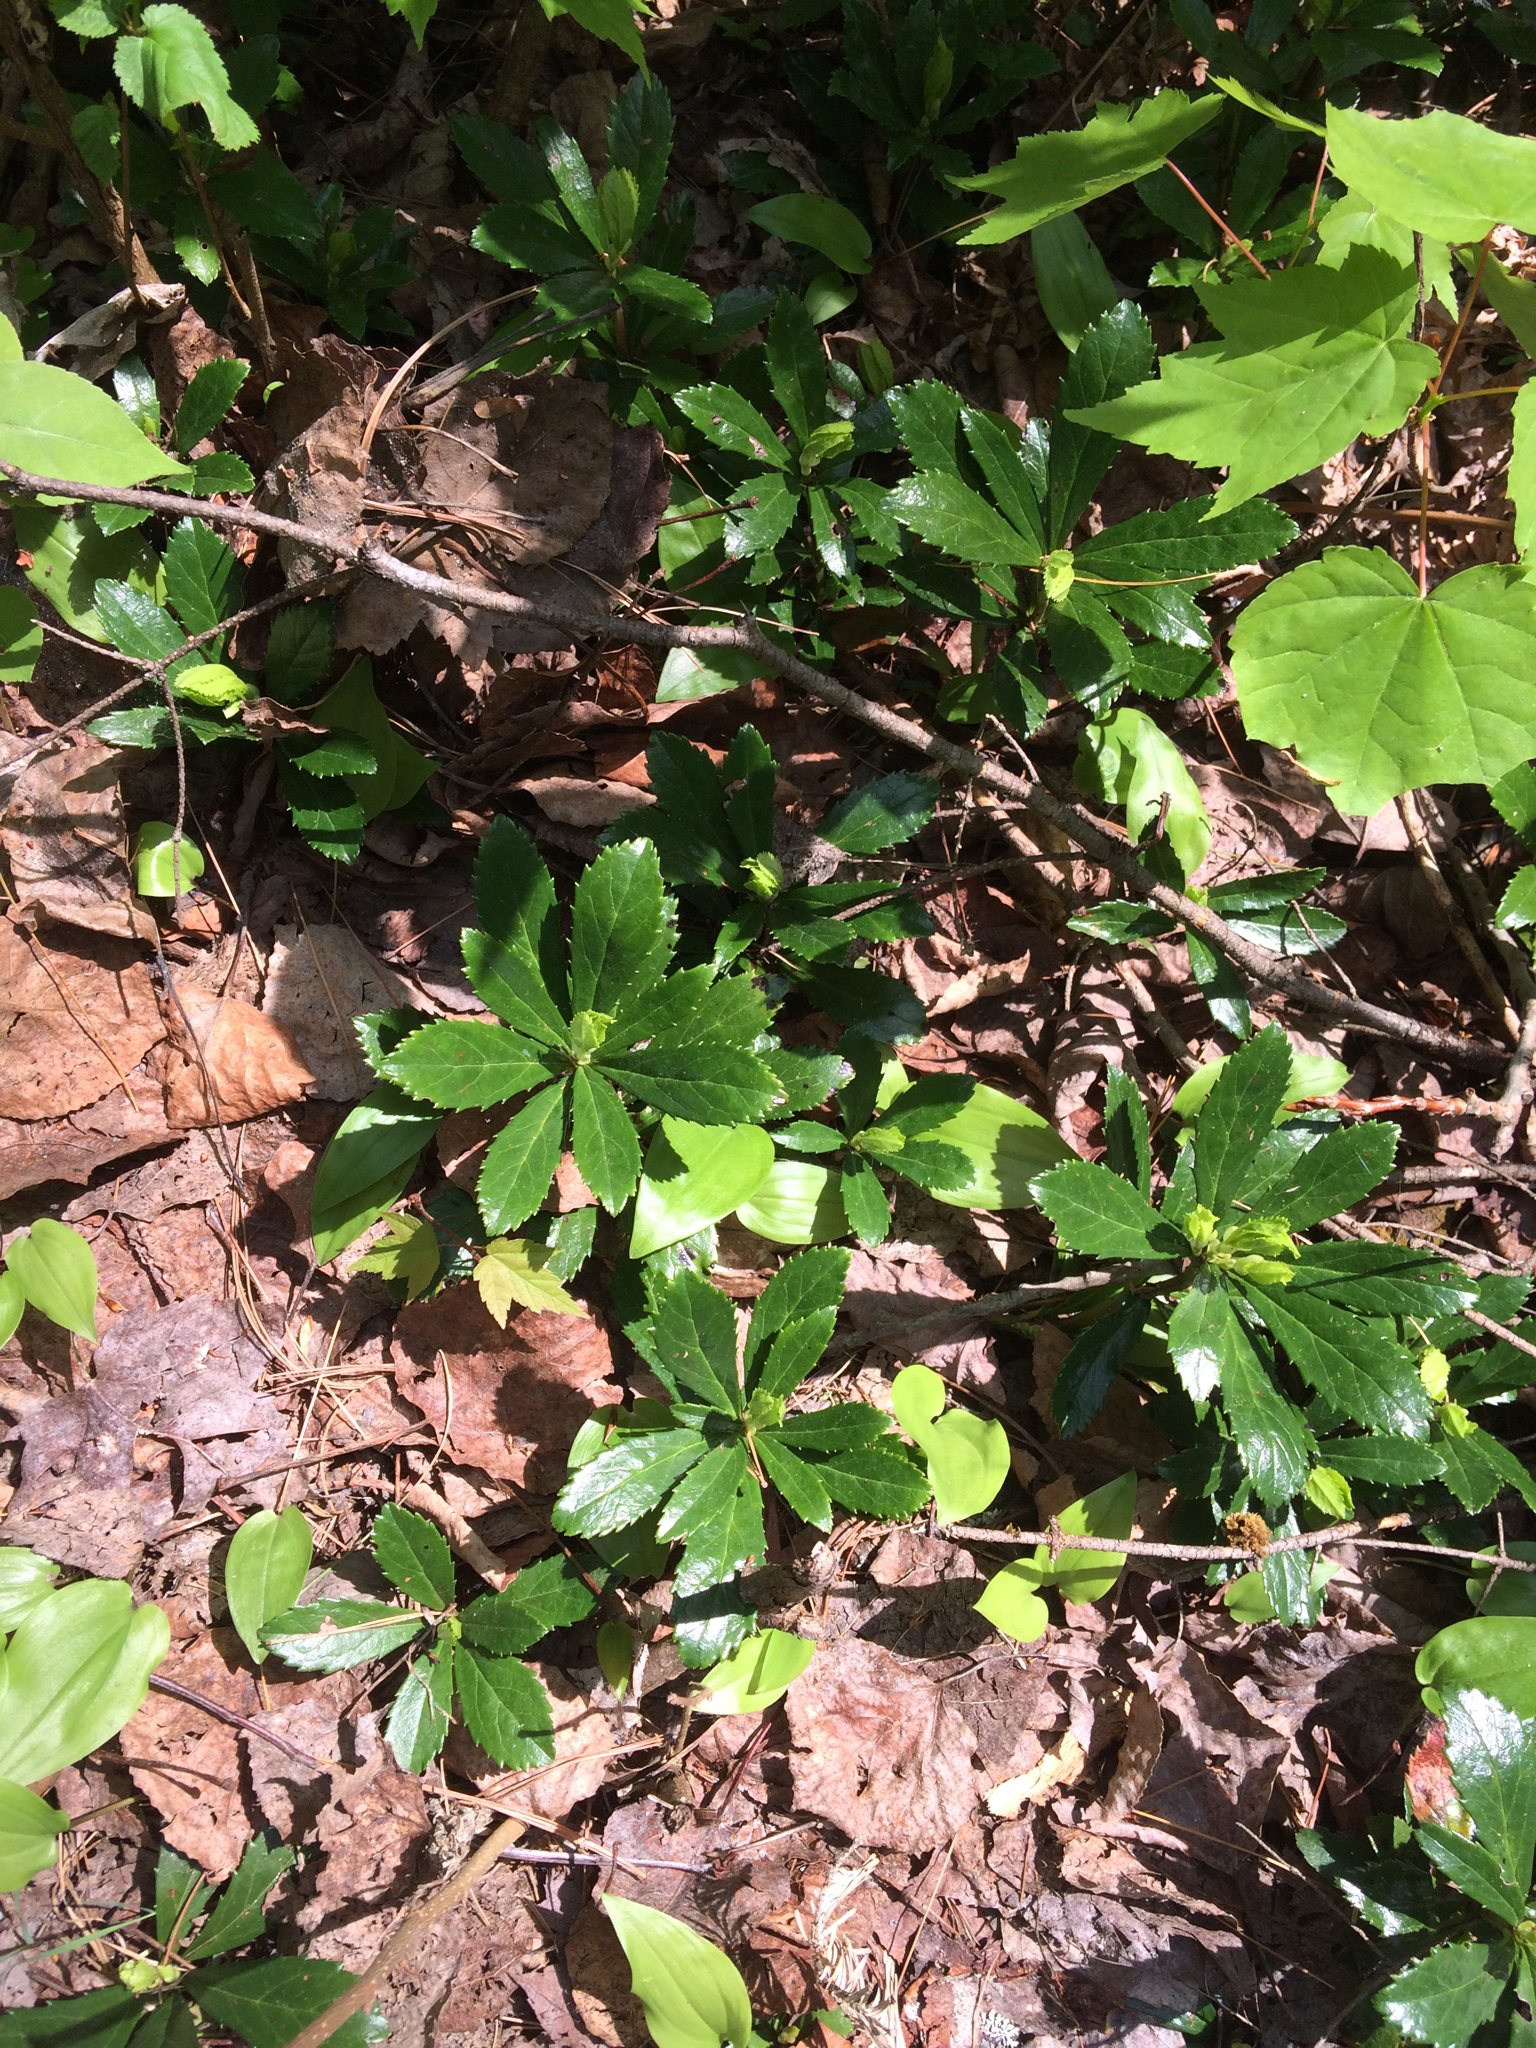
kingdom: Plantae
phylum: Tracheophyta
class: Magnoliopsida
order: Ericales
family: Ericaceae
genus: Chimaphila
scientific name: Chimaphila umbellata
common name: Pipsissewa
